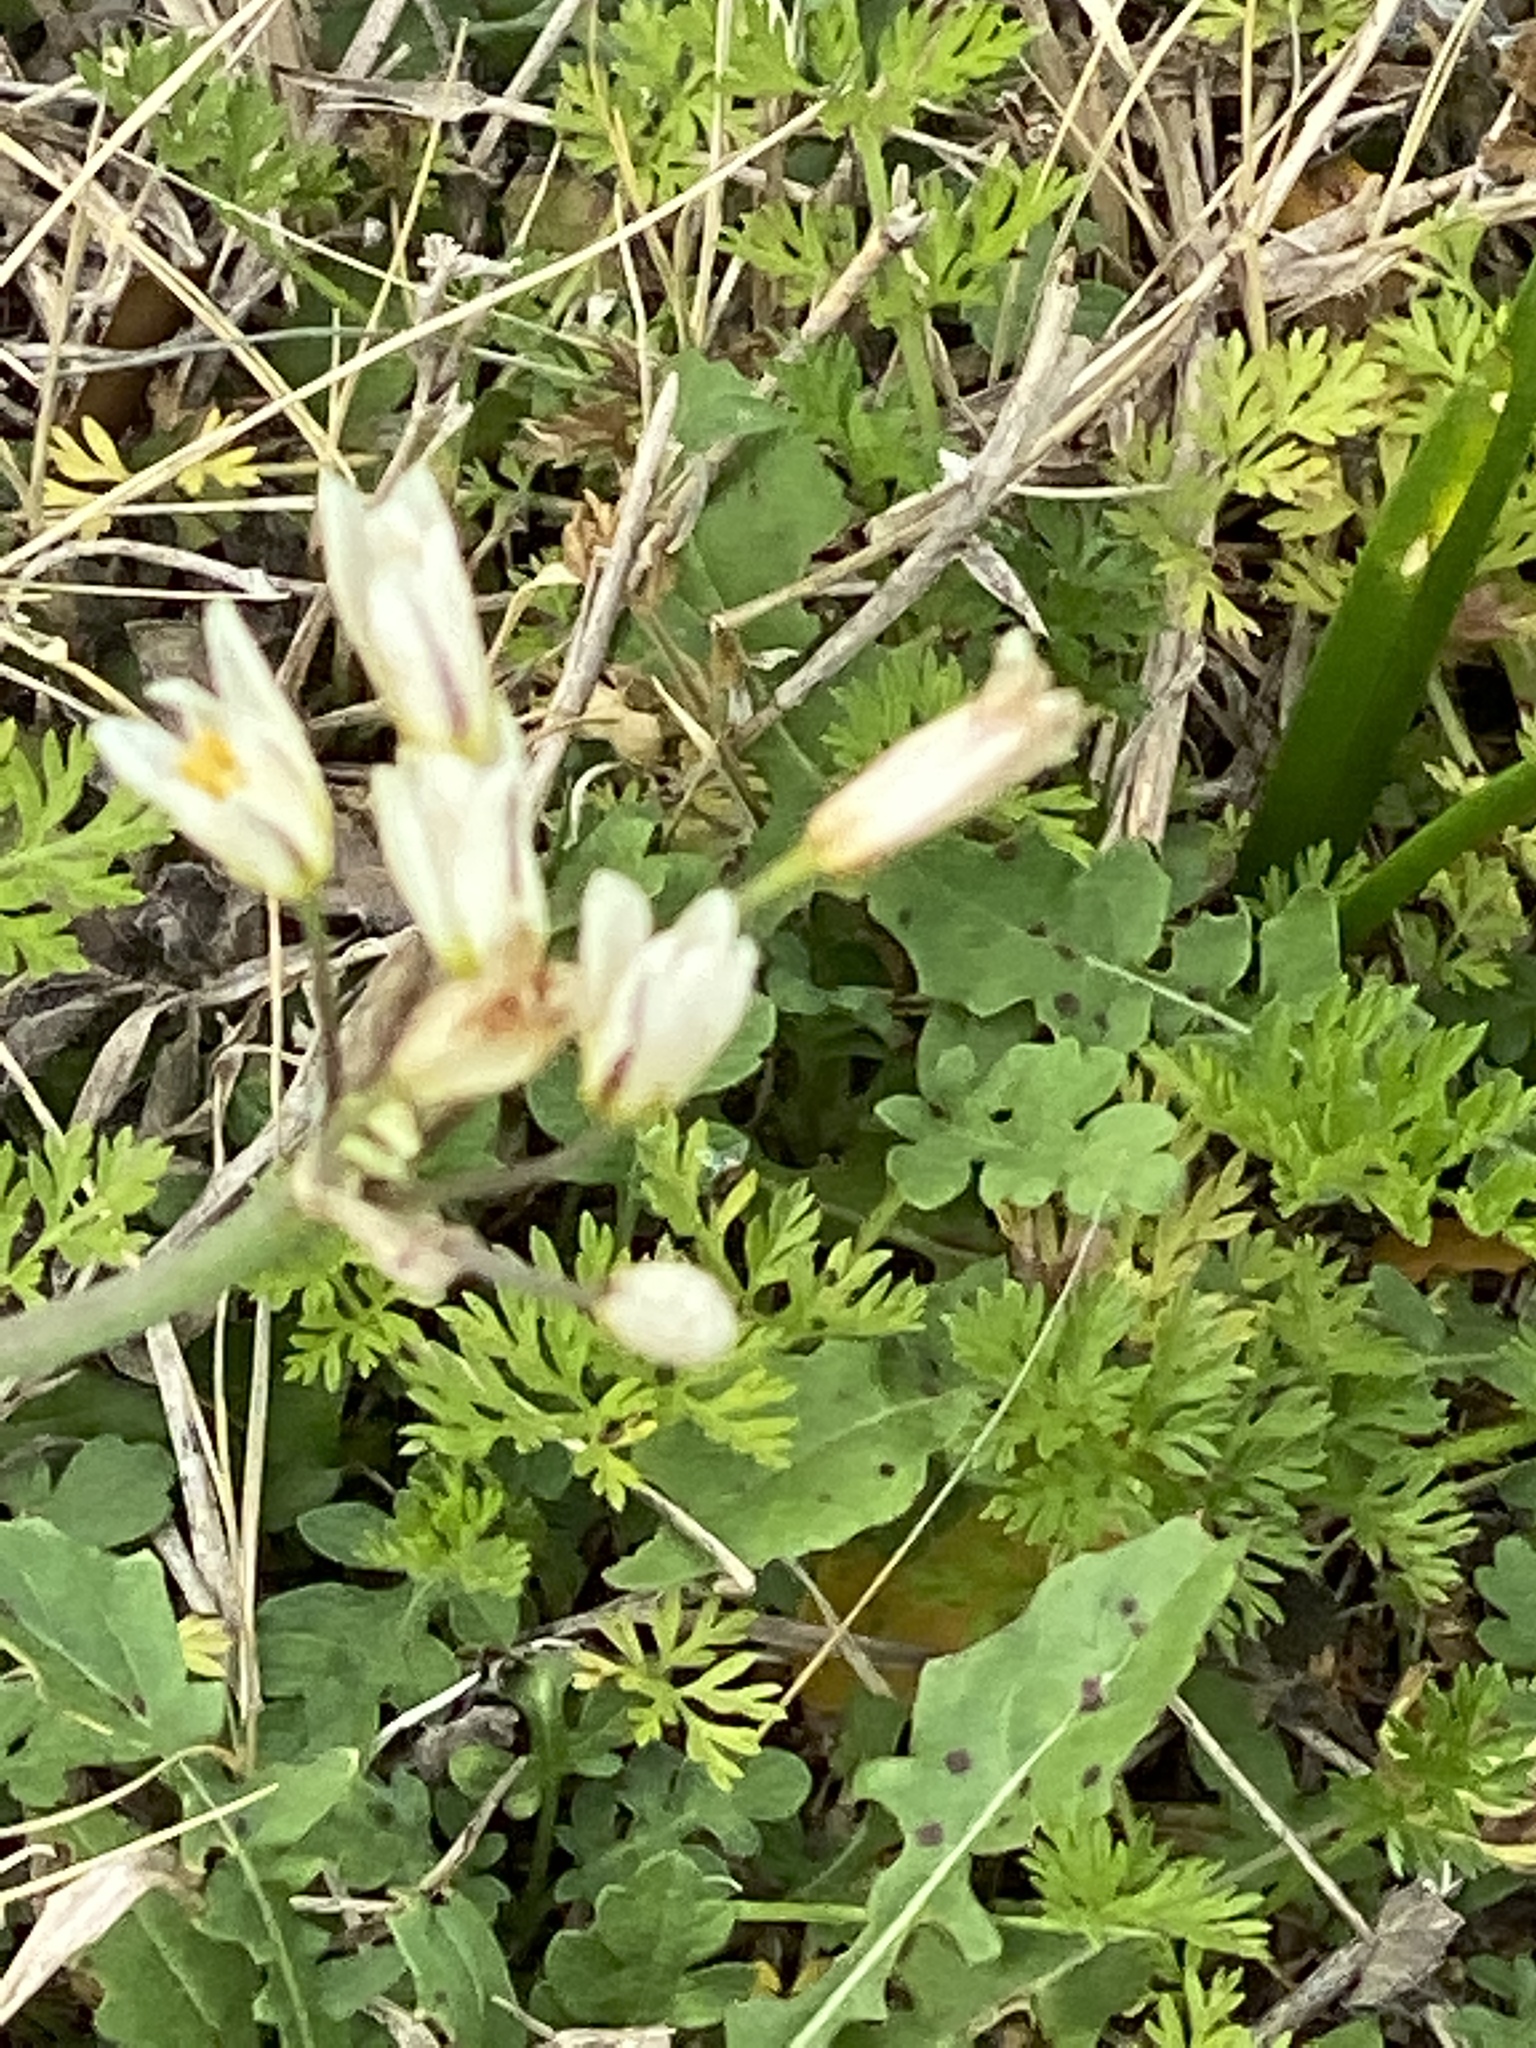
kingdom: Plantae
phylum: Tracheophyta
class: Liliopsida
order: Asparagales
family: Amaryllidaceae
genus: Nothoscordum
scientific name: Nothoscordum bivalve
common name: Crow-poison
